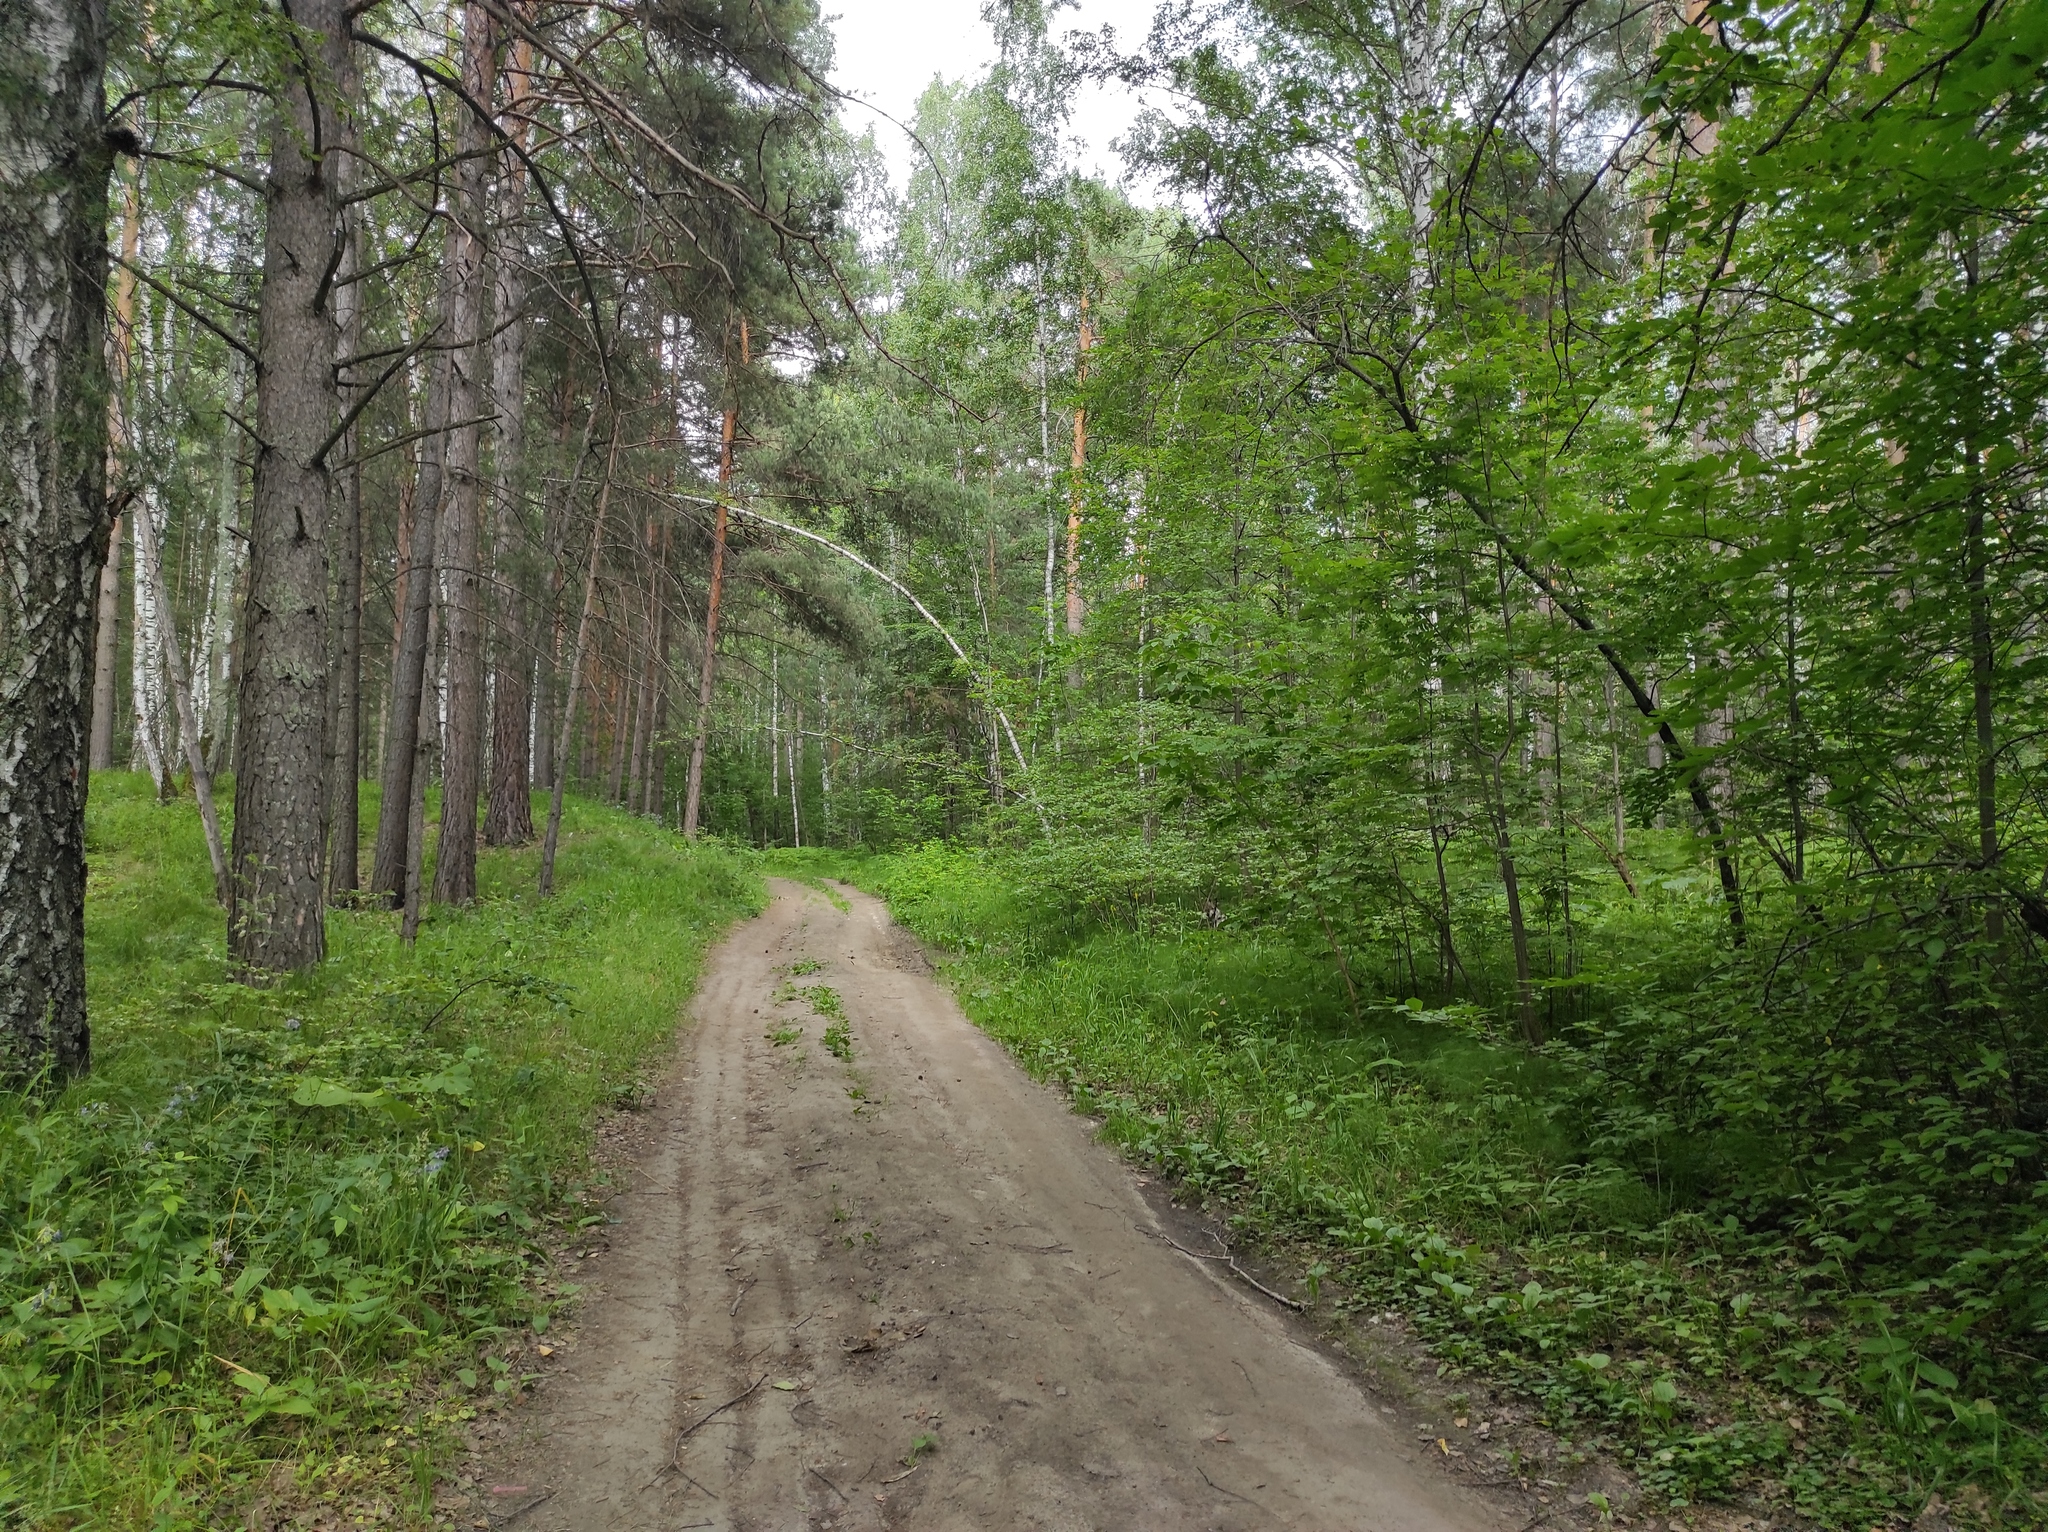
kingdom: Plantae
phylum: Tracheophyta
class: Pinopsida
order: Pinales
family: Pinaceae
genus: Pinus
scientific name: Pinus sylvestris
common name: Scots pine
